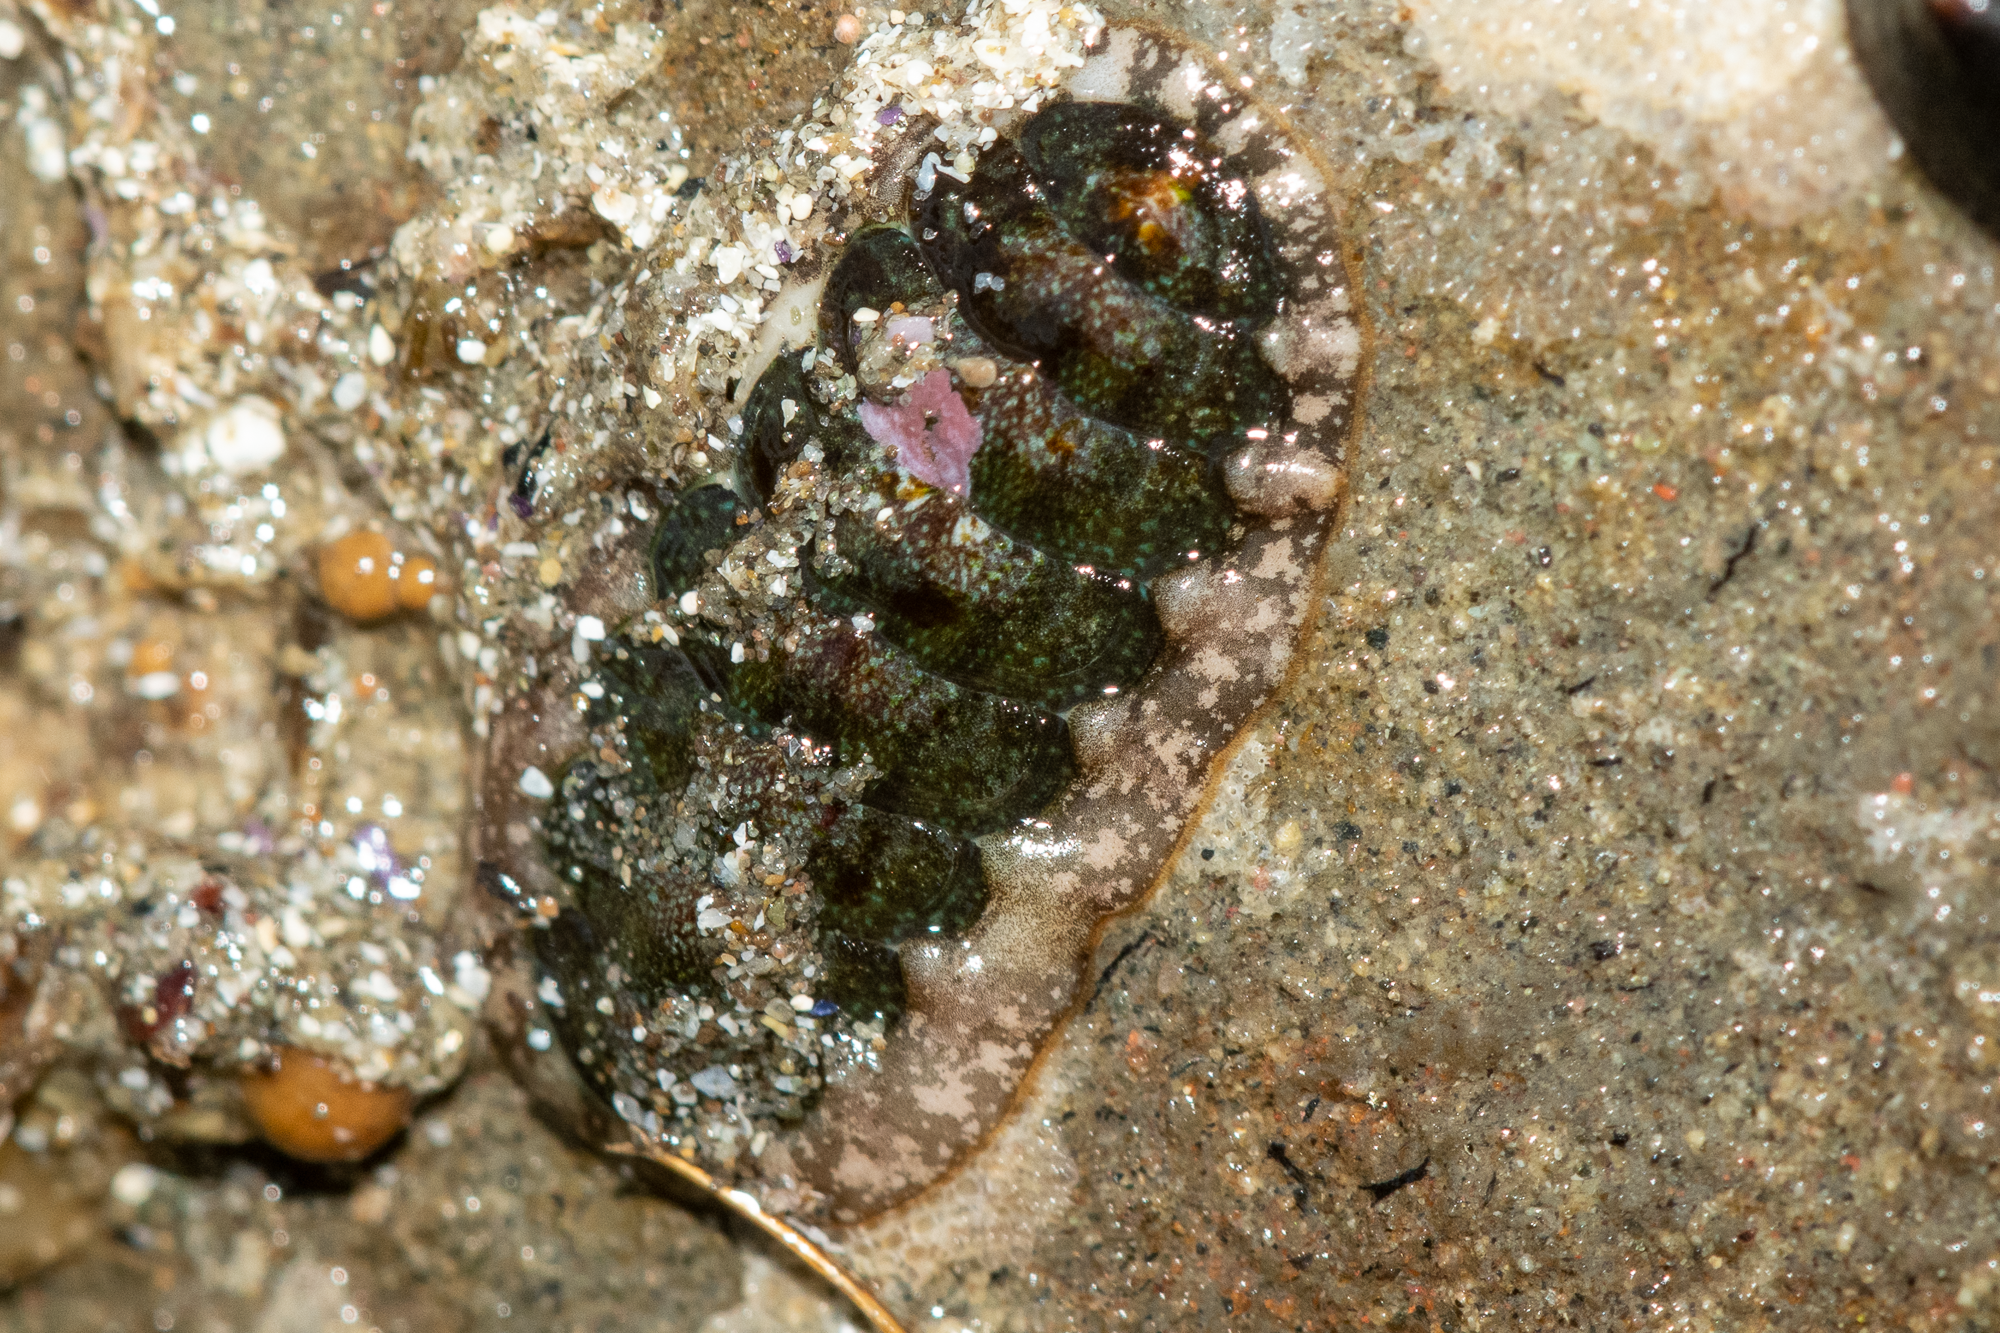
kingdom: Animalia
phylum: Mollusca
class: Polyplacophora
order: Chitonida
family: Tonicellidae
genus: Cyanoplax
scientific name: Cyanoplax dentiens
